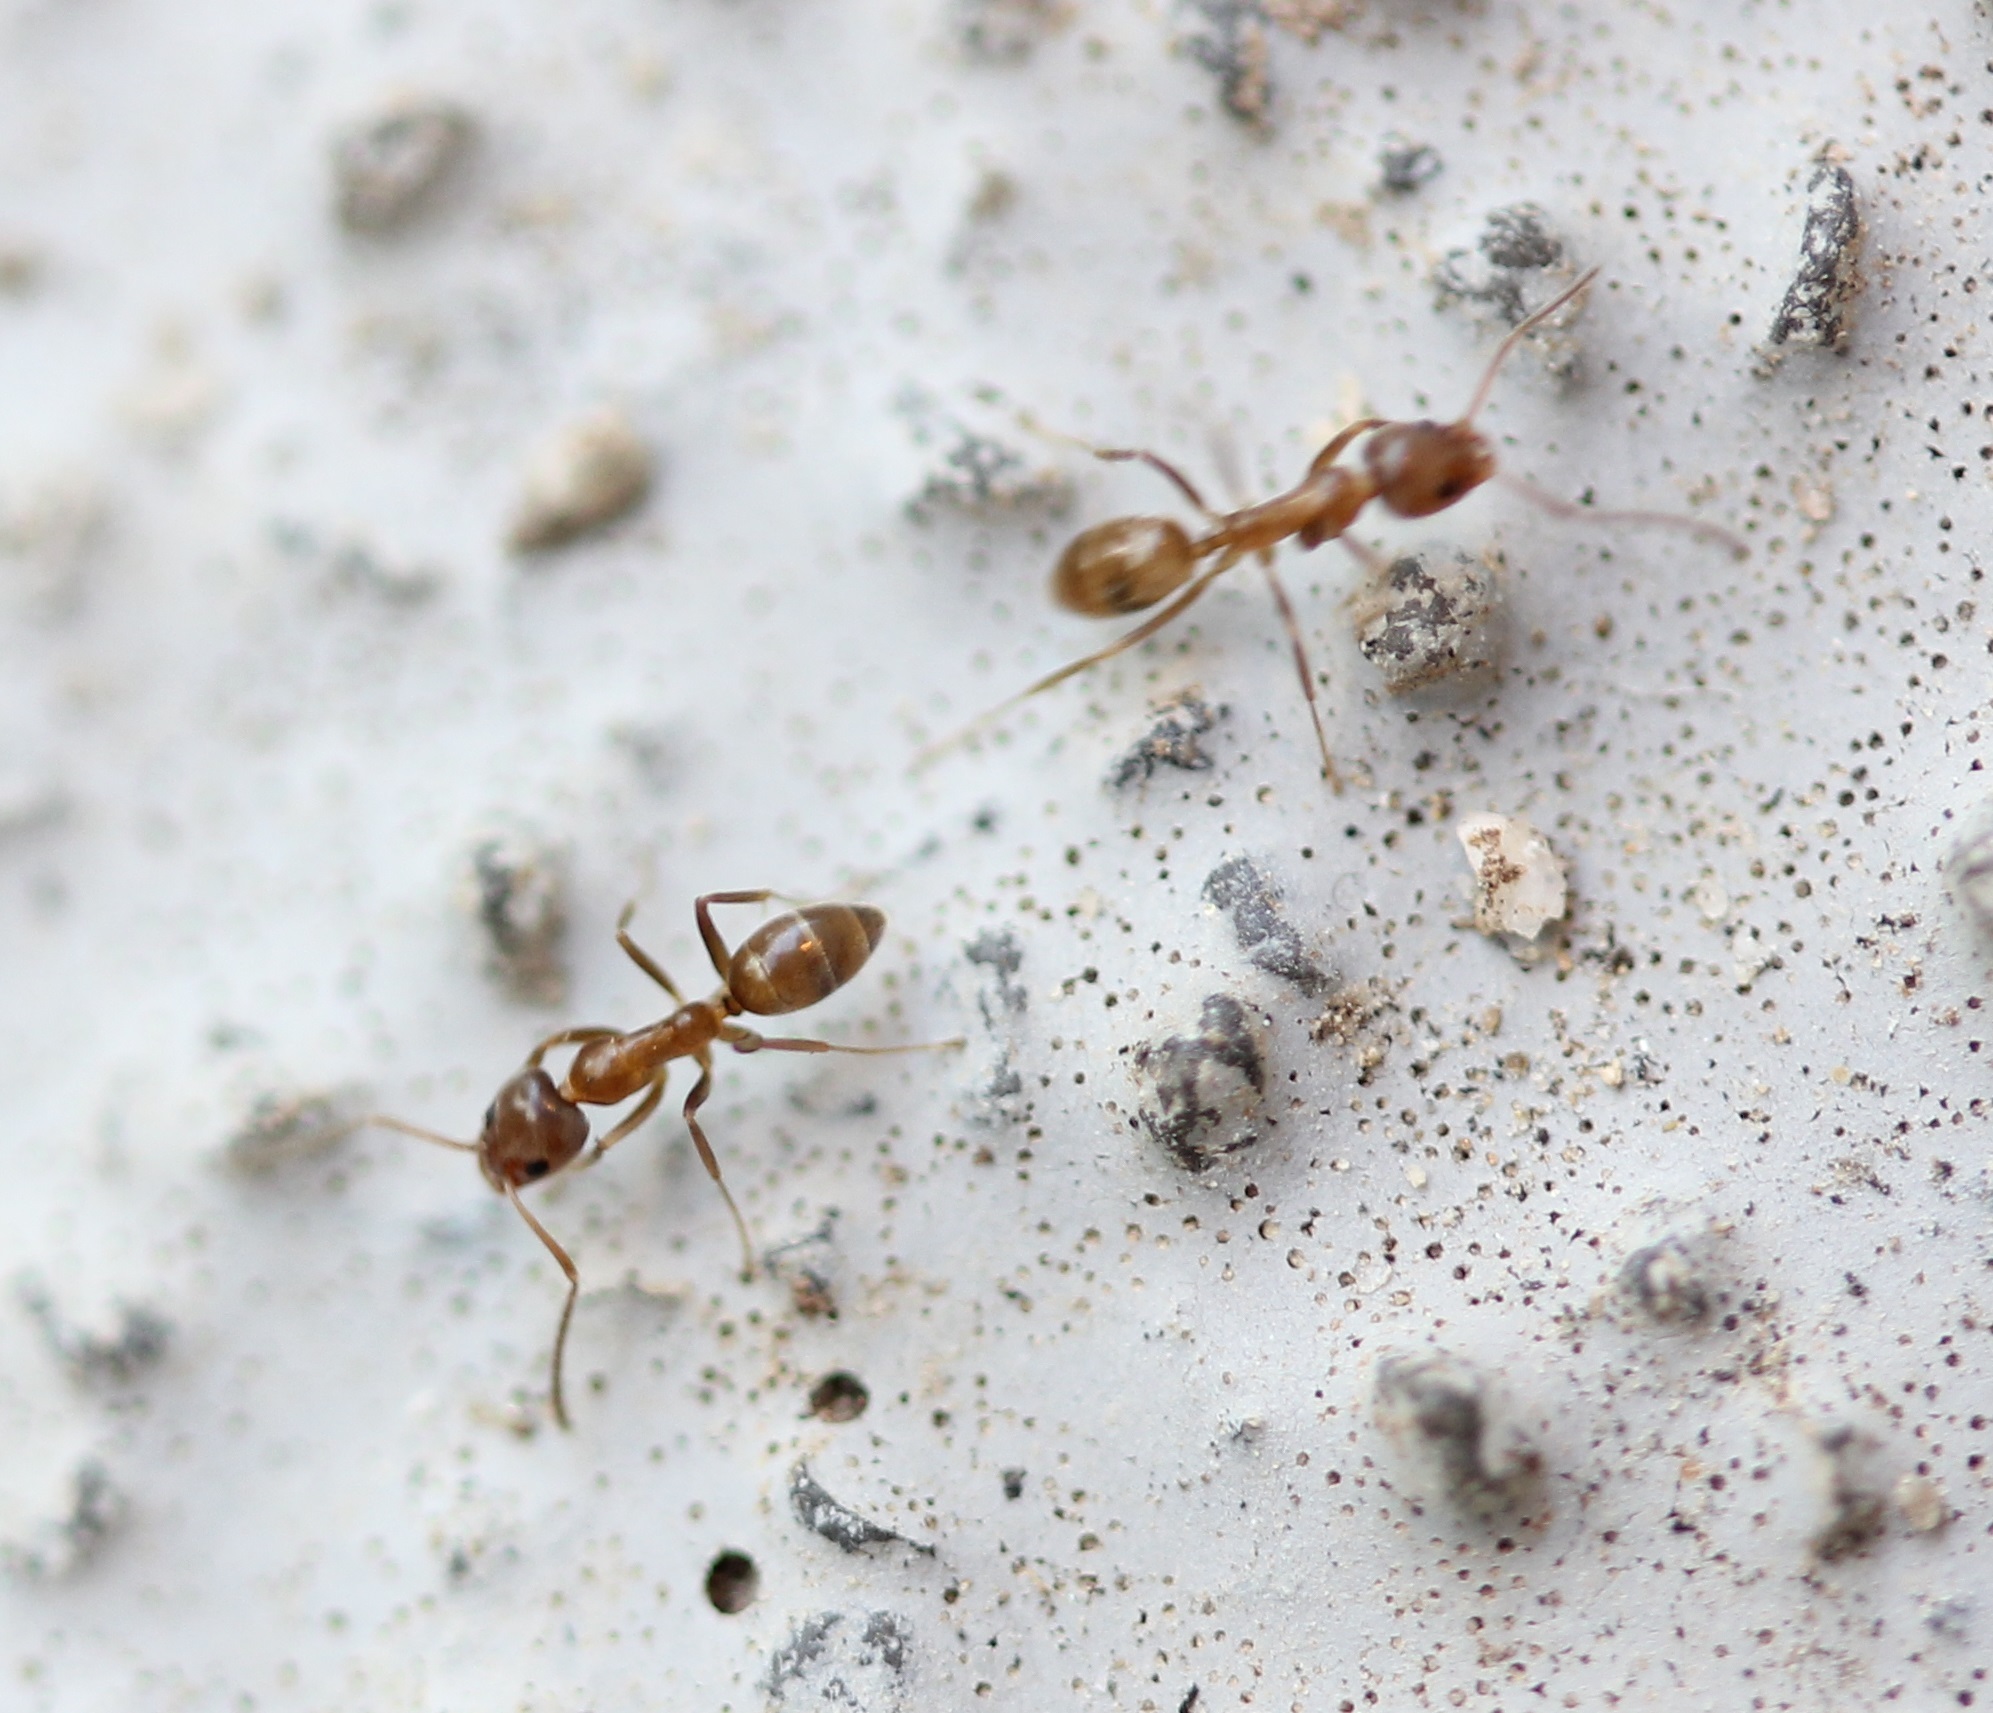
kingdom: Animalia
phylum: Arthropoda
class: Insecta
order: Hymenoptera
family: Formicidae
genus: Linepithema
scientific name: Linepithema humile
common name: Argentine ant
